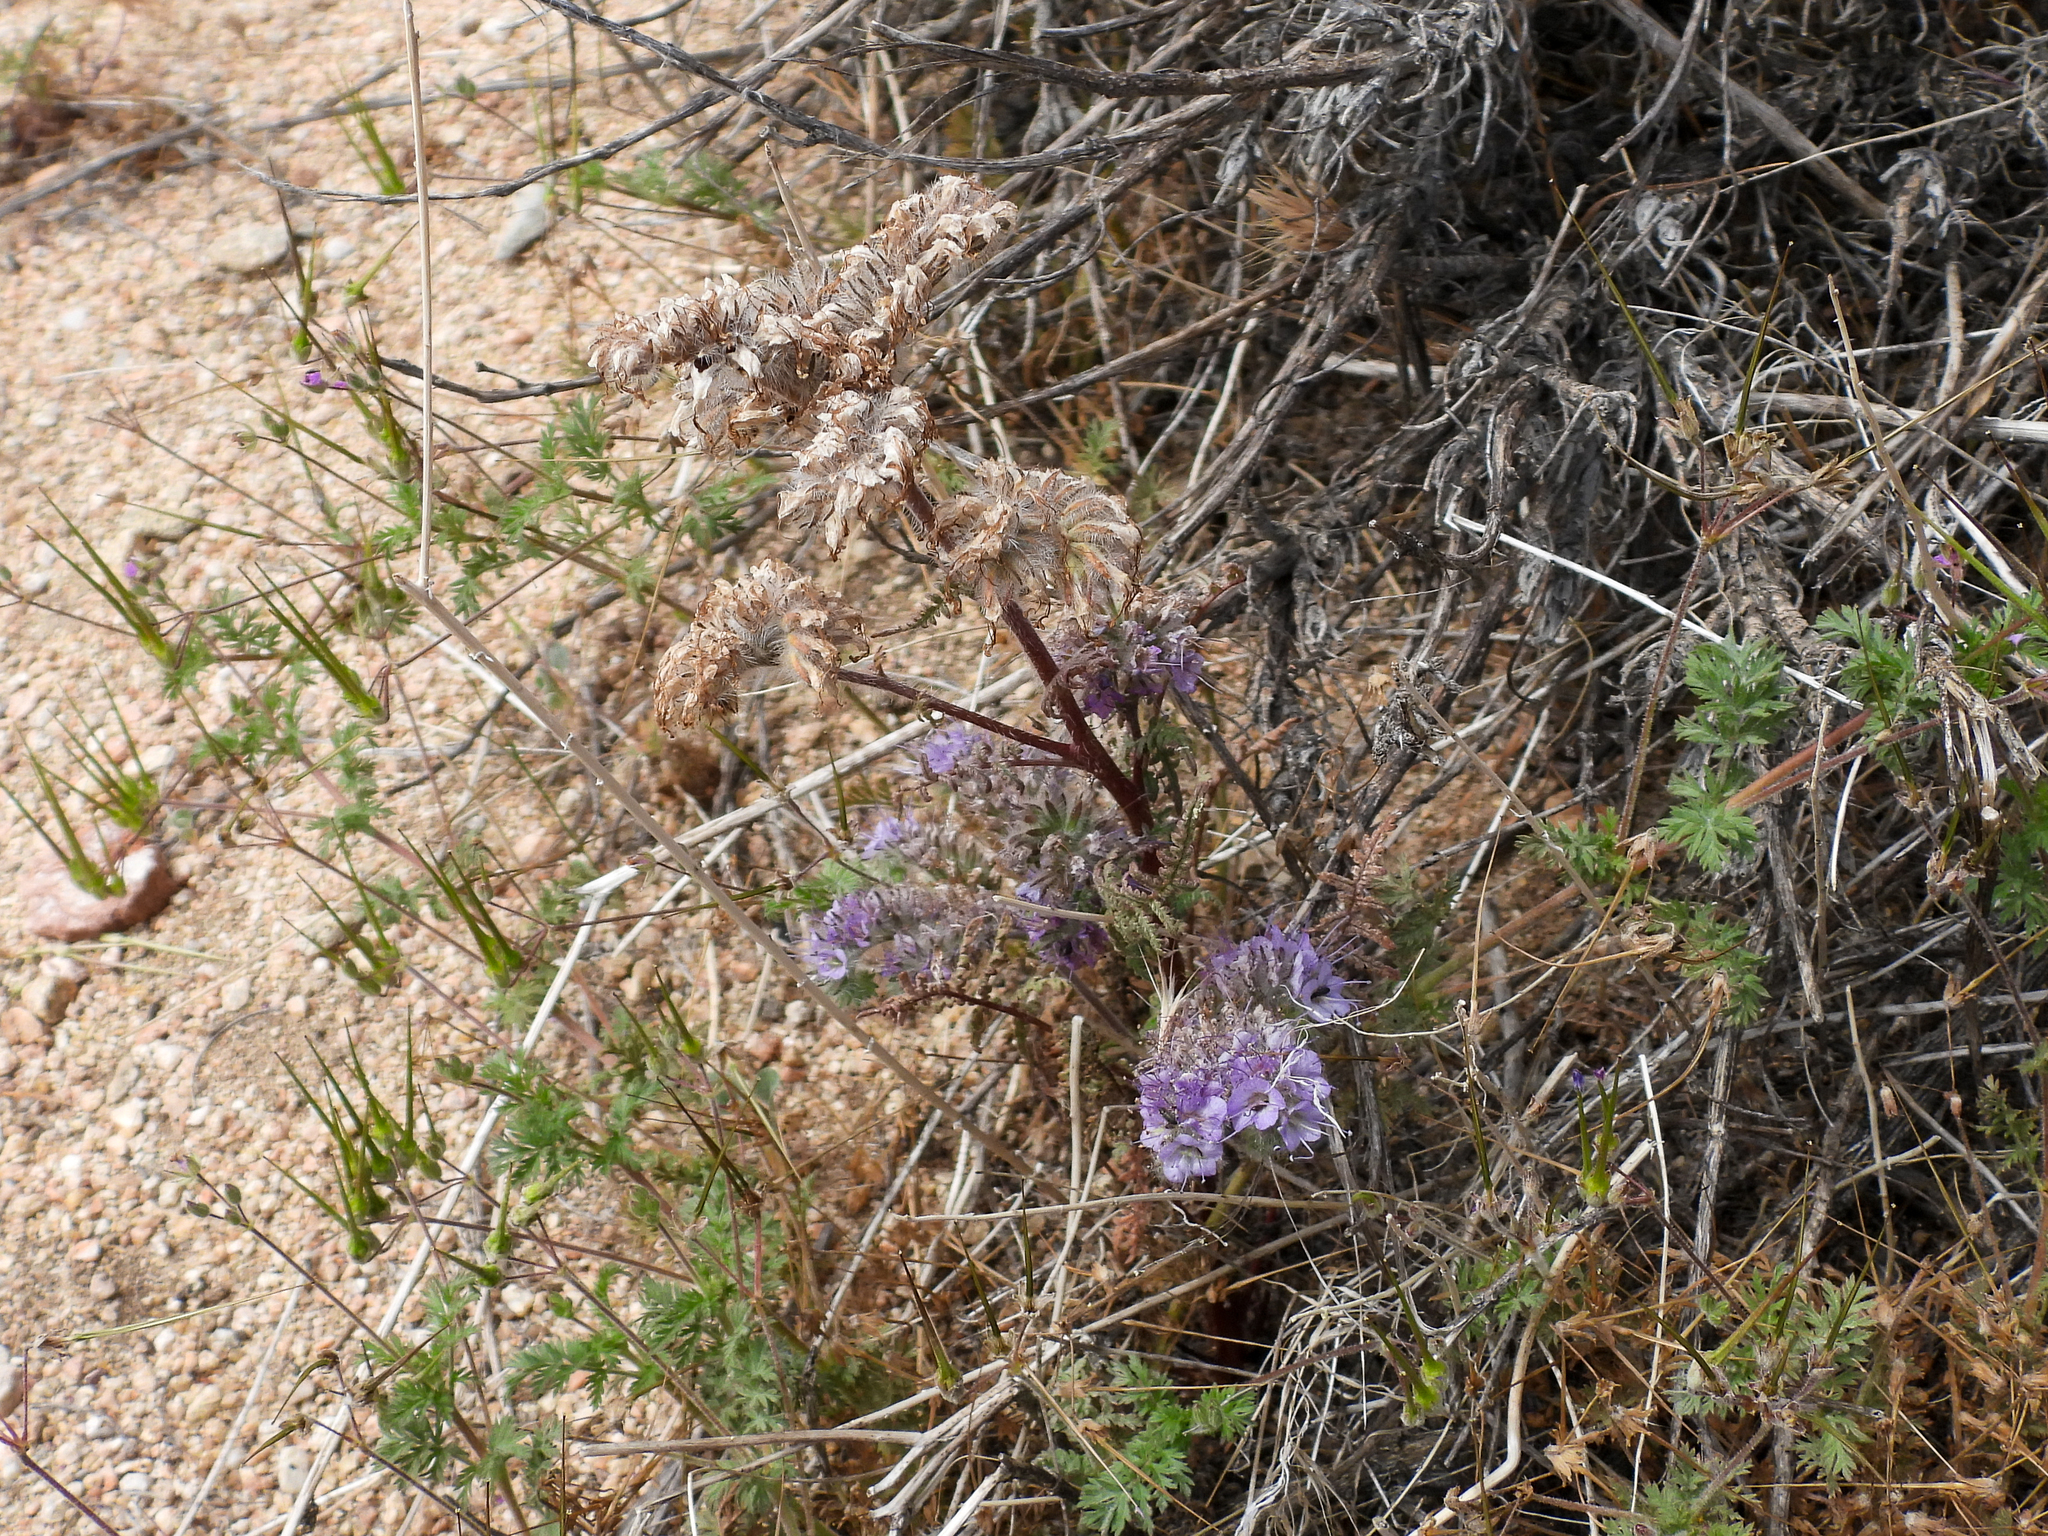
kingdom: Plantae
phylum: Tracheophyta
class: Magnoliopsida
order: Boraginales
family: Hydrophyllaceae
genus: Phacelia
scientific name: Phacelia tanacetifolia
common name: Phacelia
